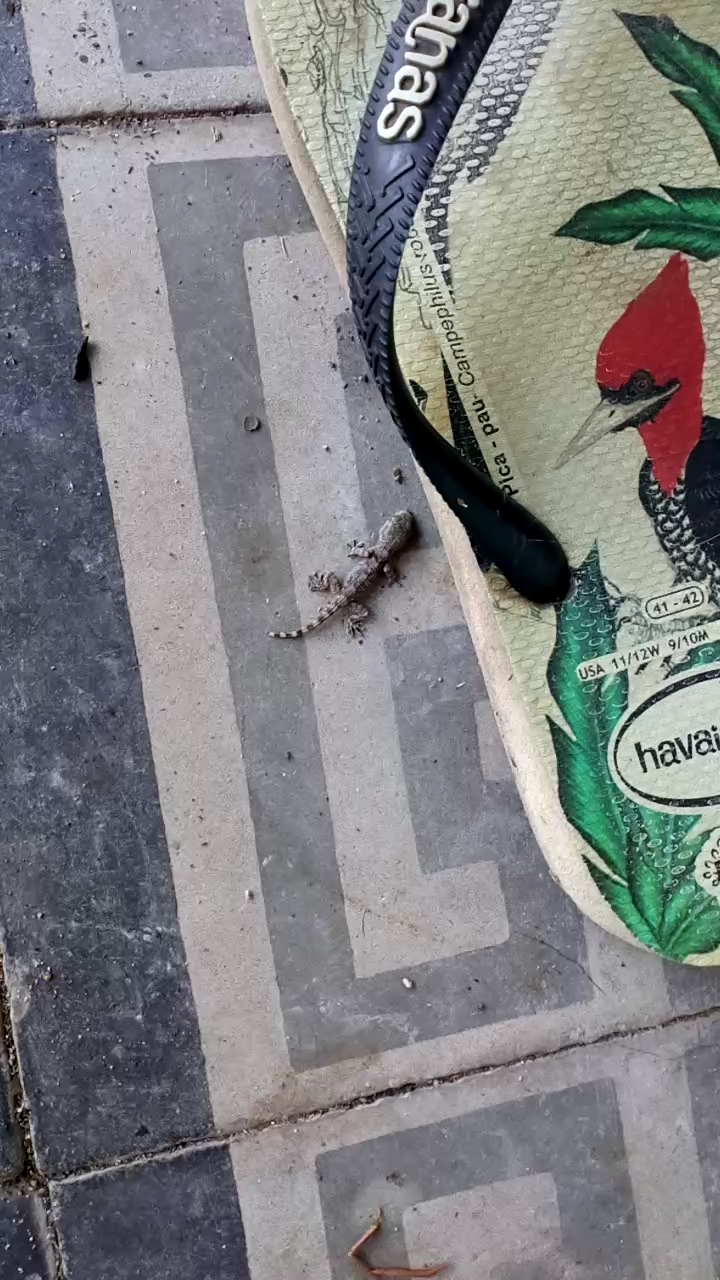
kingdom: Animalia
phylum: Chordata
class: Squamata
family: Phyllodactylidae
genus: Tarentola
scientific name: Tarentola mauritanica
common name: Moorish gecko
